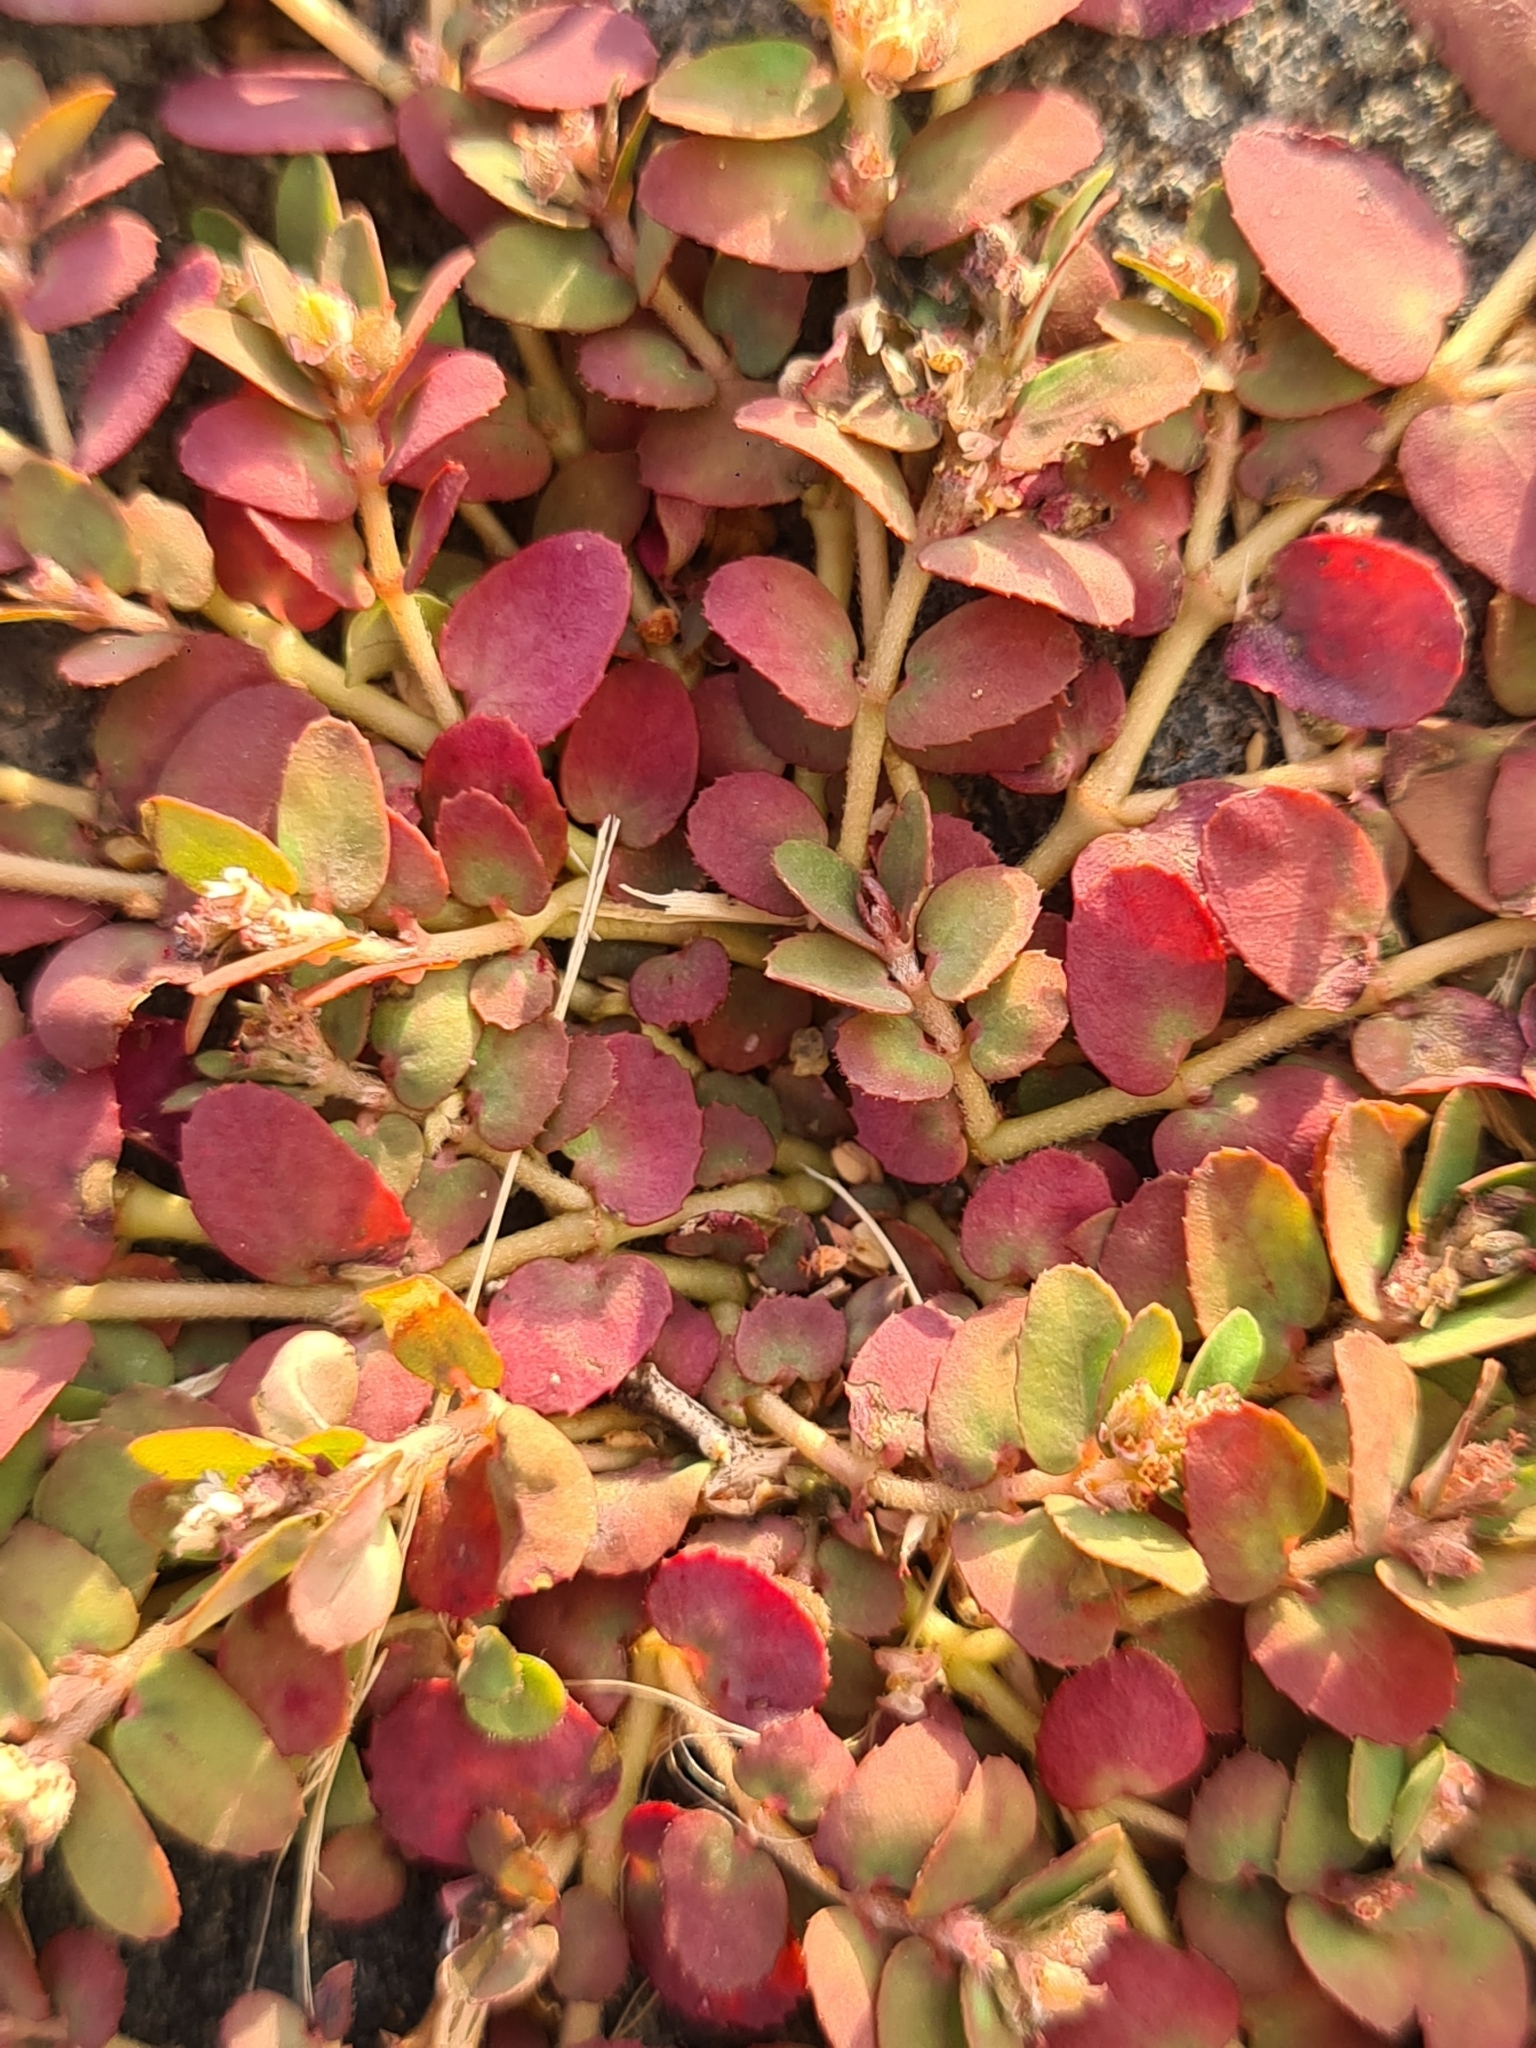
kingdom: Plantae
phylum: Tracheophyta
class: Magnoliopsida
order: Malpighiales
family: Euphorbiaceae
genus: Euphorbia
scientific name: Euphorbia thymifolia
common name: Gulf sandmat
